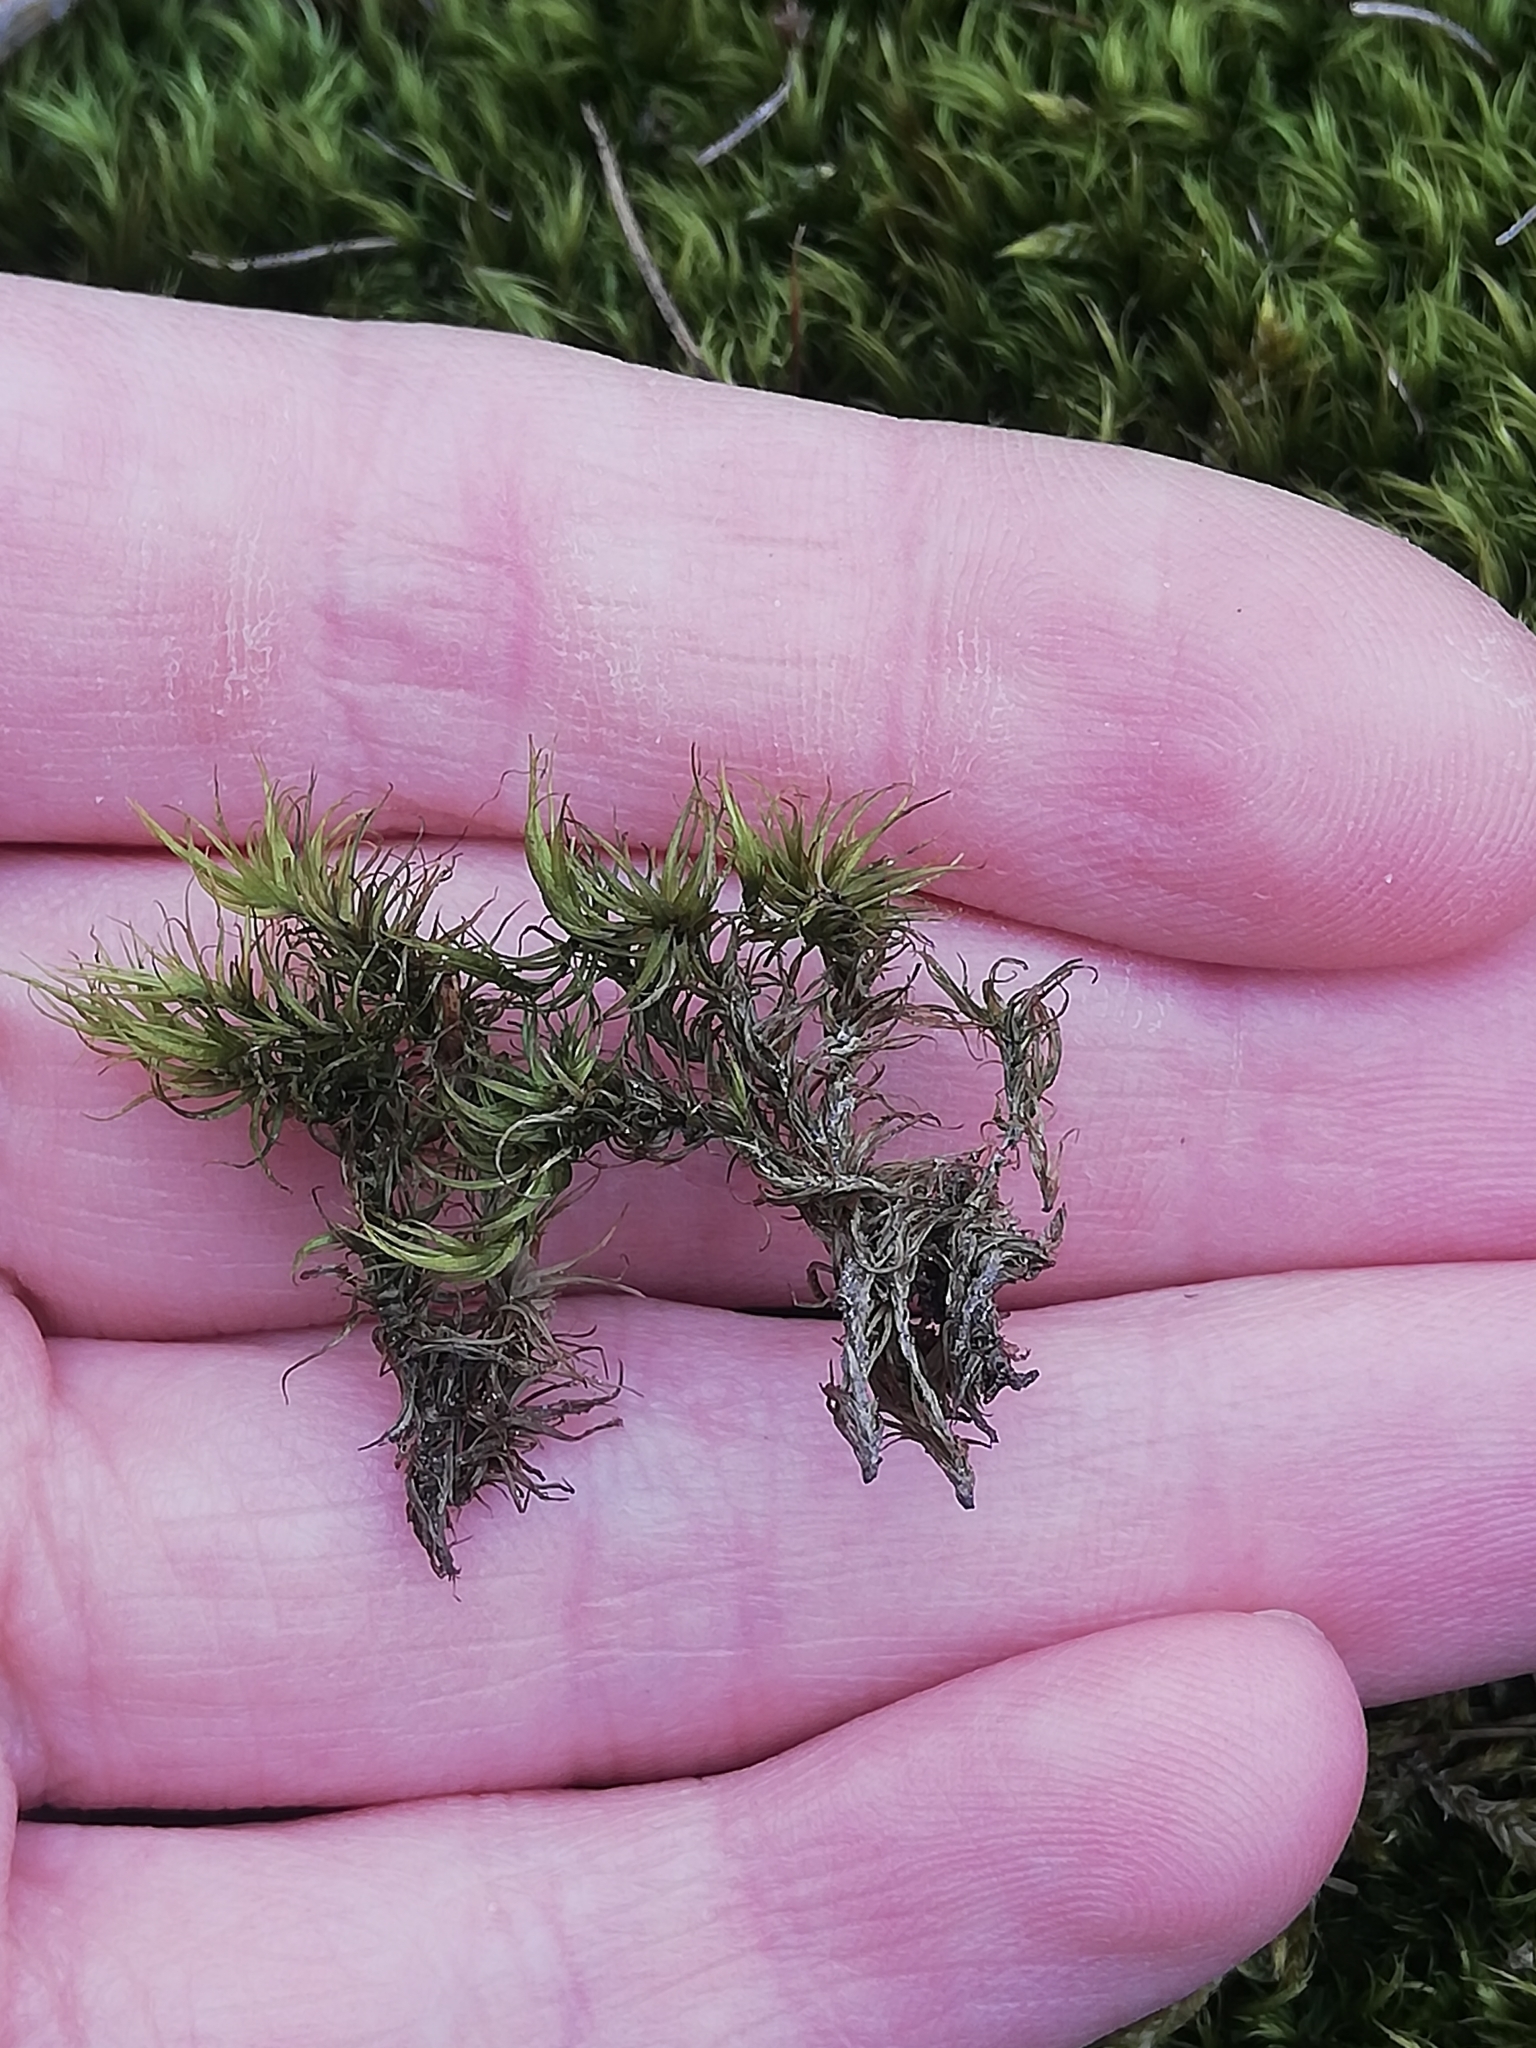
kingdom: Plantae
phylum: Bryophyta
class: Bryopsida
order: Dicranales
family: Dicranaceae
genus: Dicranum
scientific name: Dicranum scoparium
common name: Broom fork-moss
